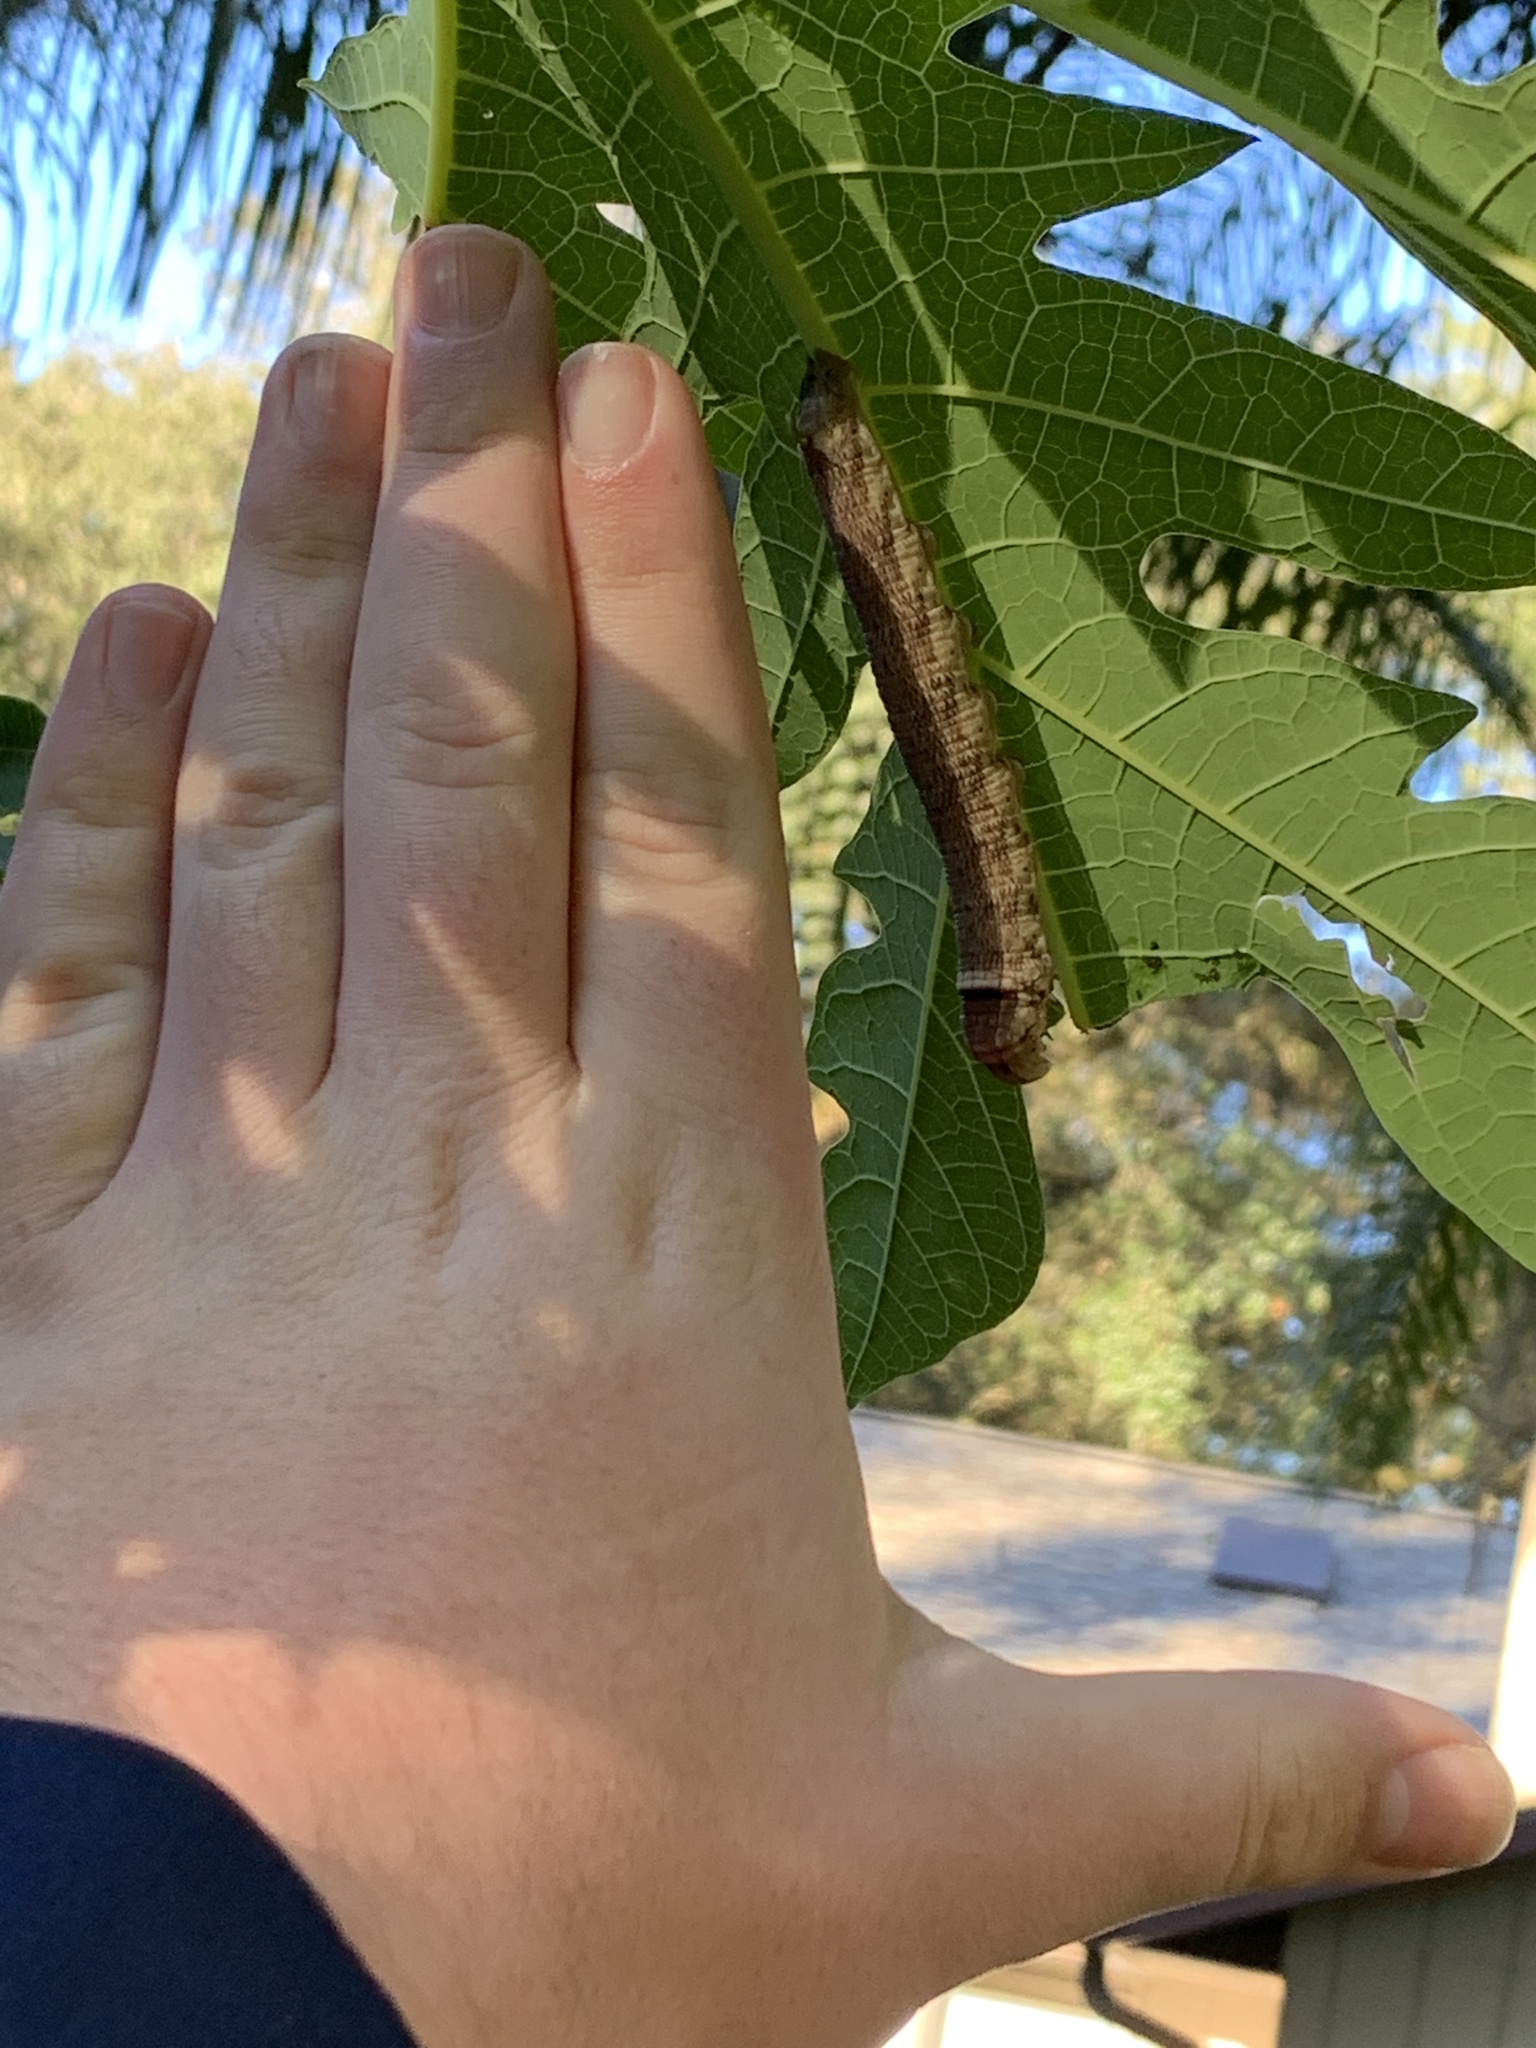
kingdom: Animalia
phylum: Arthropoda
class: Insecta
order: Lepidoptera
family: Sphingidae
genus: Erinnyis
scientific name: Erinnyis alope
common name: Alope sphinx
